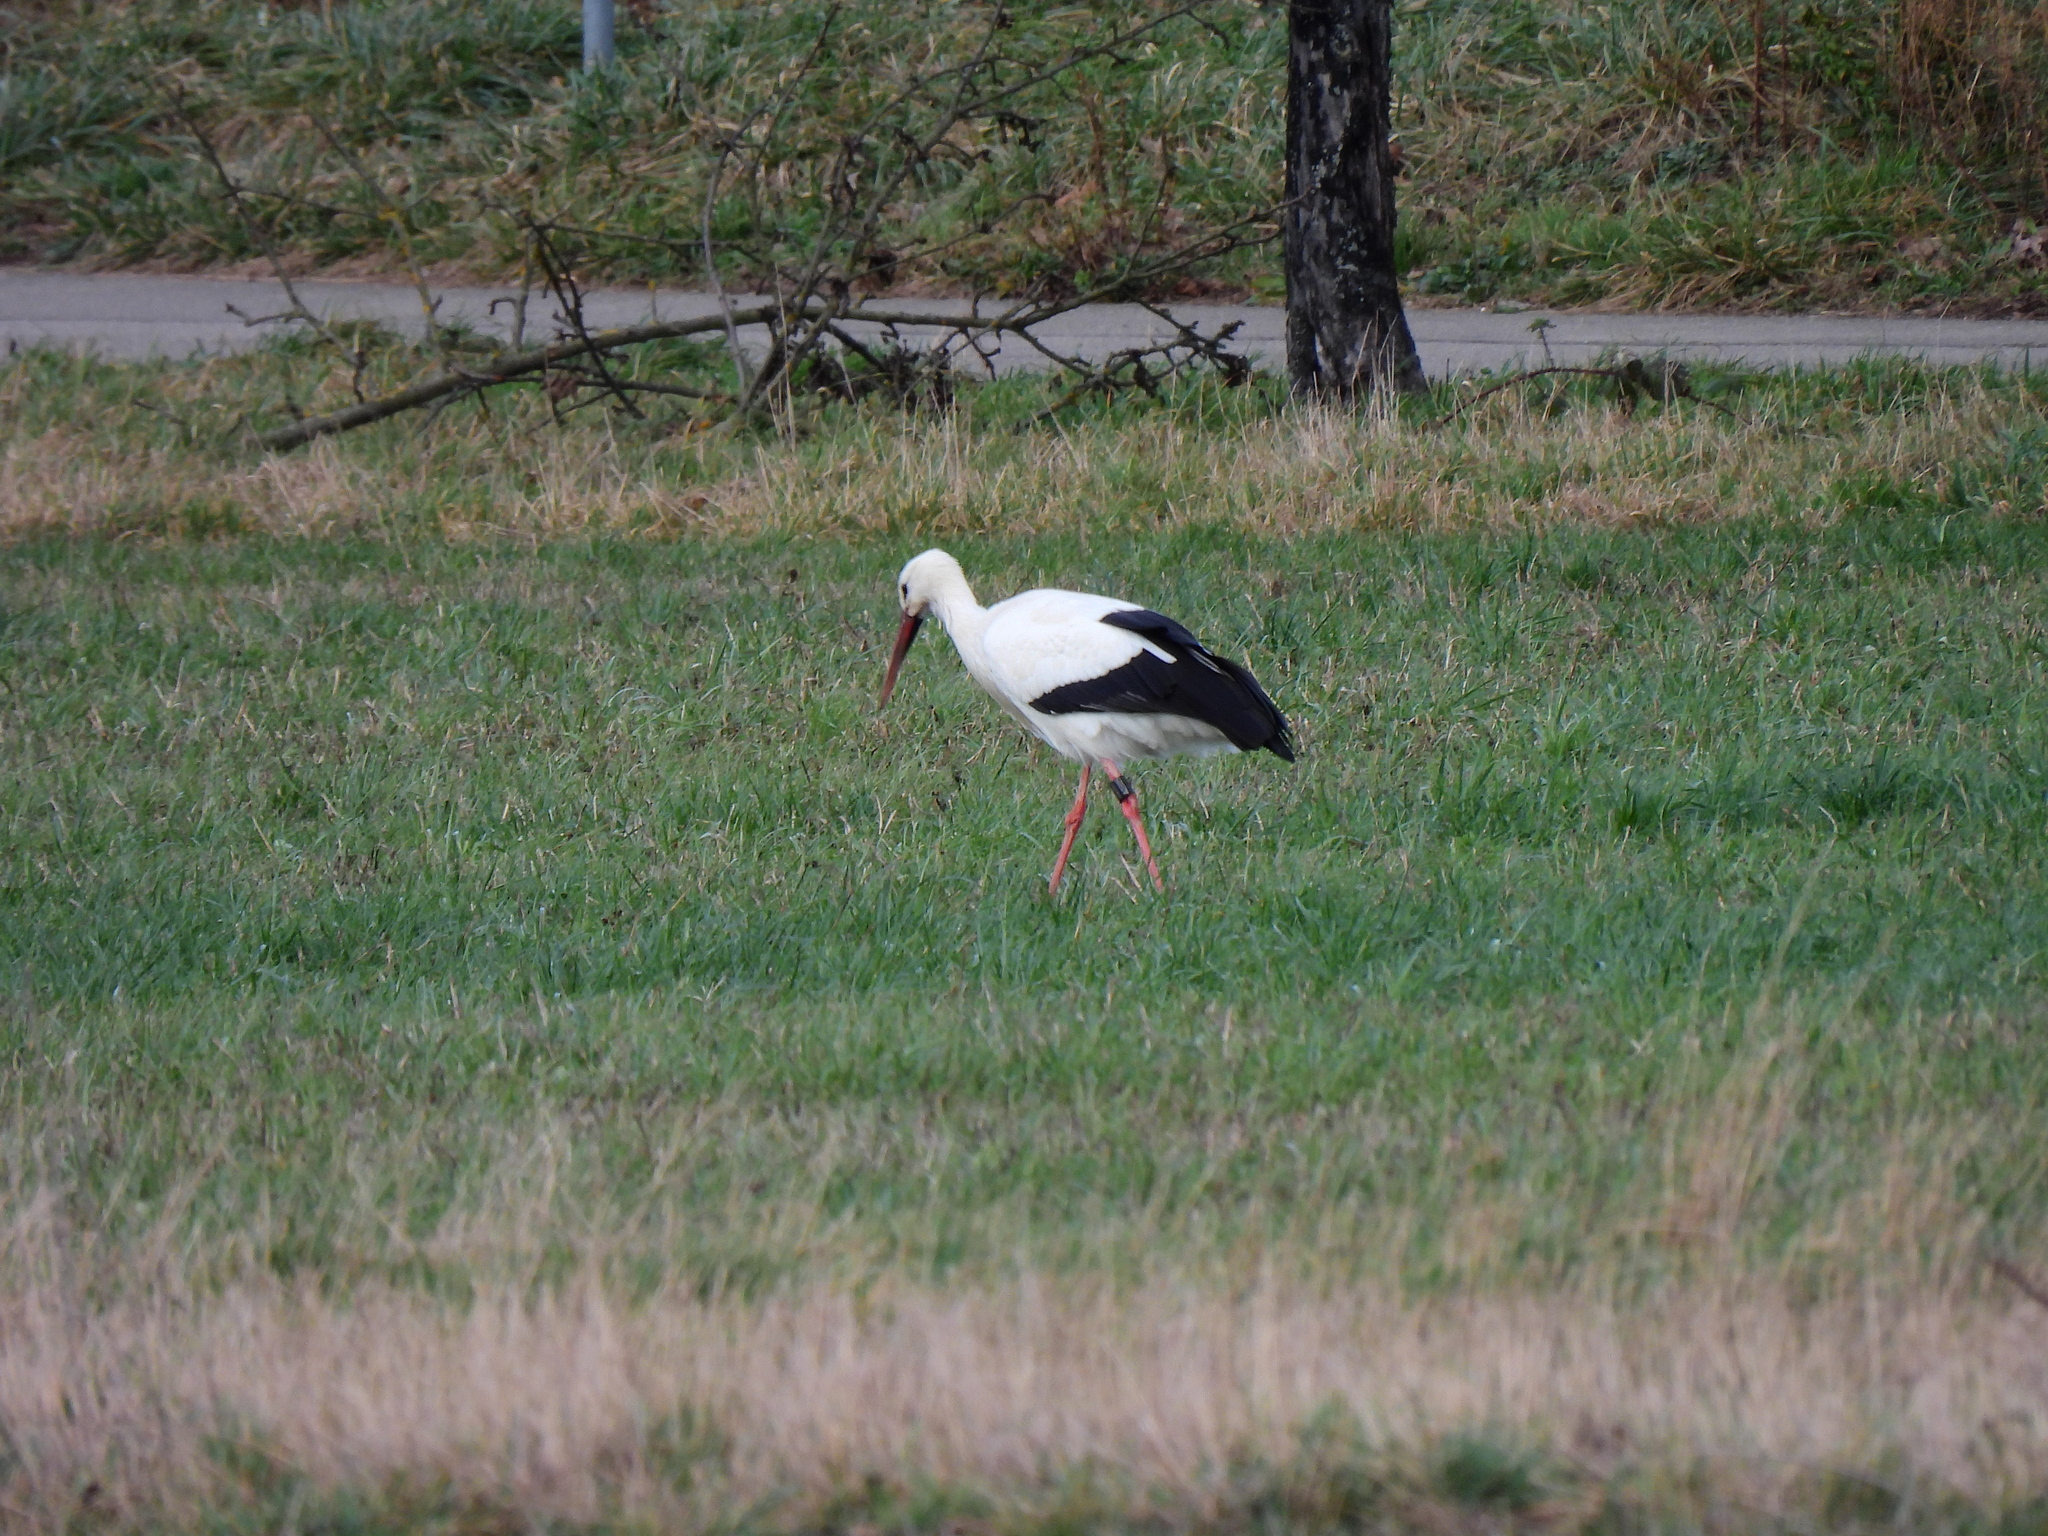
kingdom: Animalia
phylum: Chordata
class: Aves
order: Ciconiiformes
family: Ciconiidae
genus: Ciconia
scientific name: Ciconia ciconia
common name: White stork
